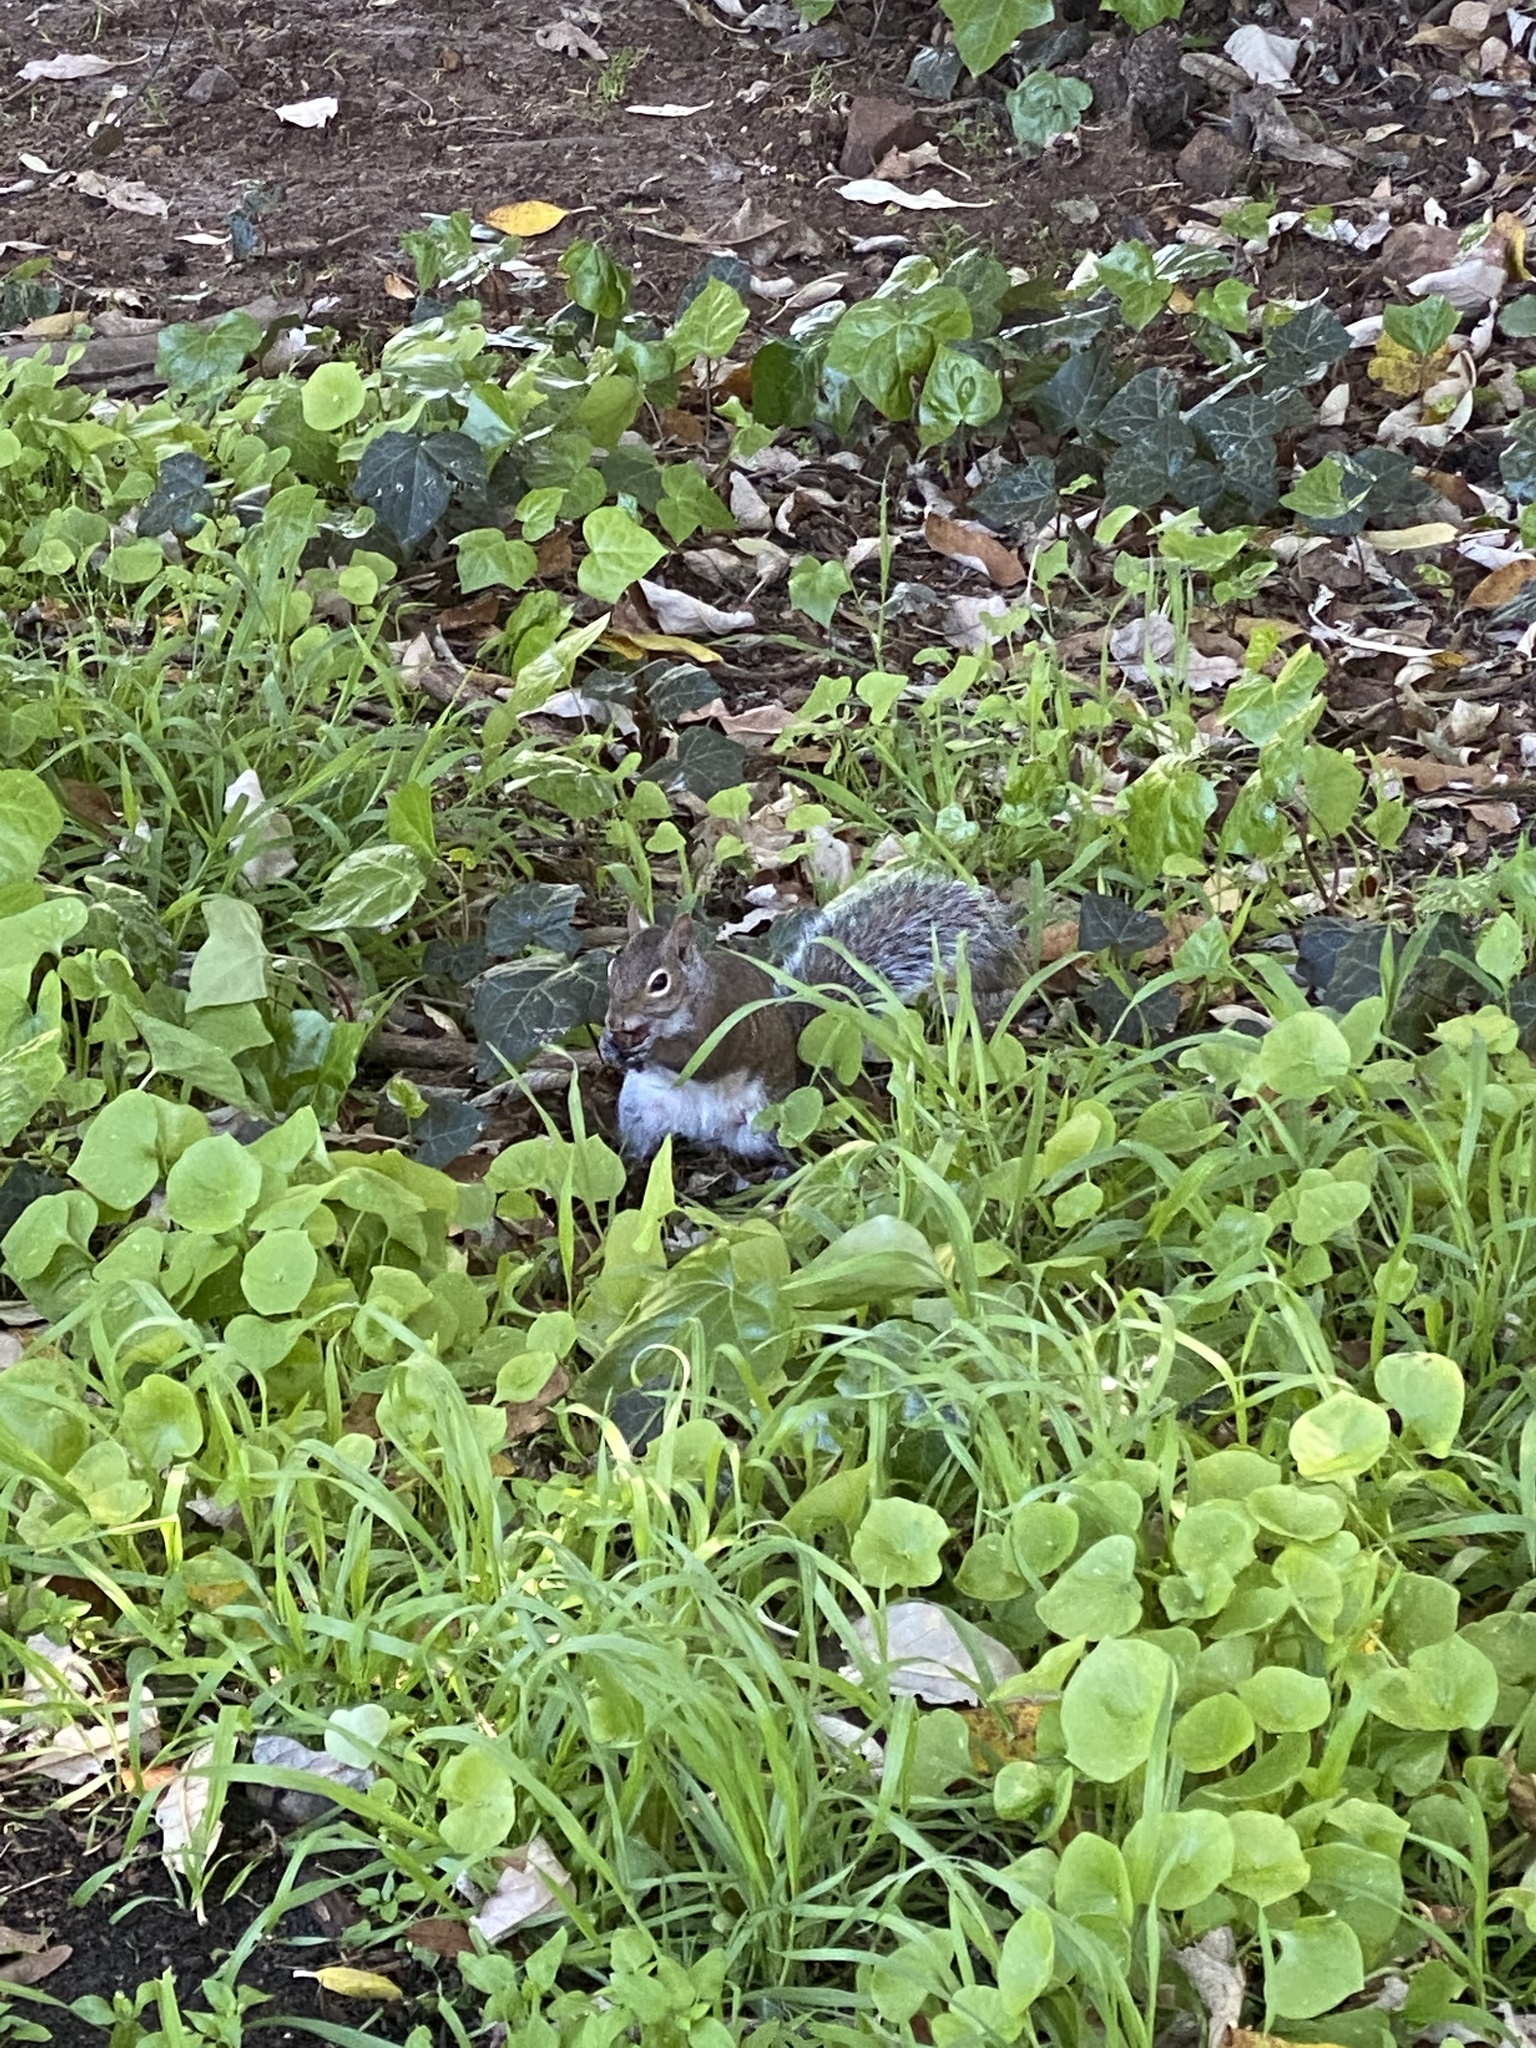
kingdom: Animalia
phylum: Chordata
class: Mammalia
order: Rodentia
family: Sciuridae
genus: Sciurus
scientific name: Sciurus carolinensis
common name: Eastern gray squirrel
